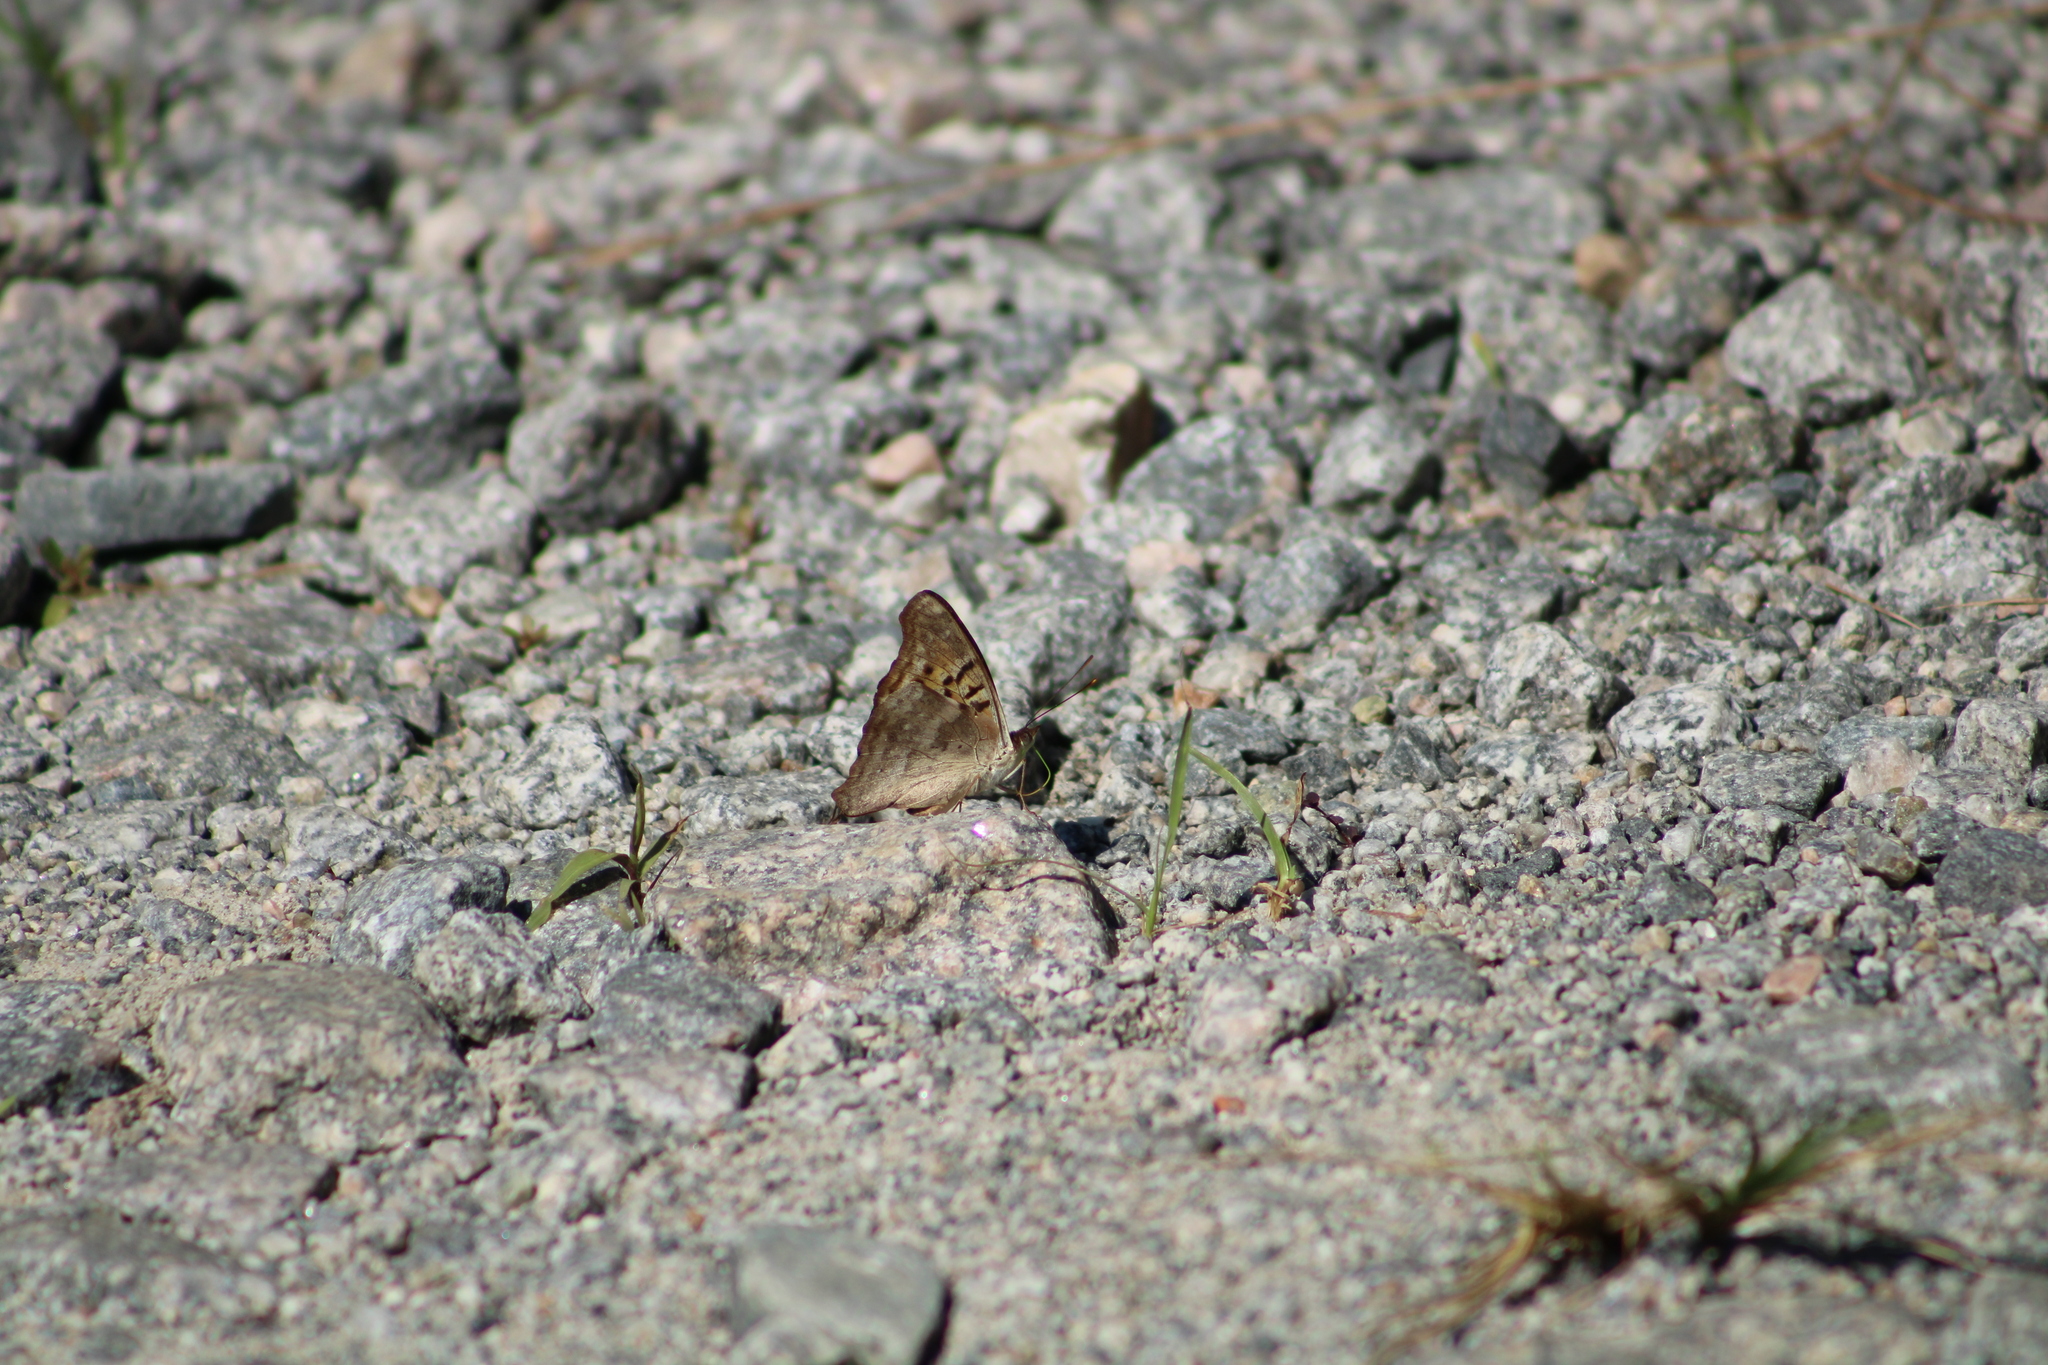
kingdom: Animalia
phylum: Arthropoda
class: Insecta
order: Lepidoptera
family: Nymphalidae
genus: Doxocopa
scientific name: Doxocopa laurentia
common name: Turquoise emperor
